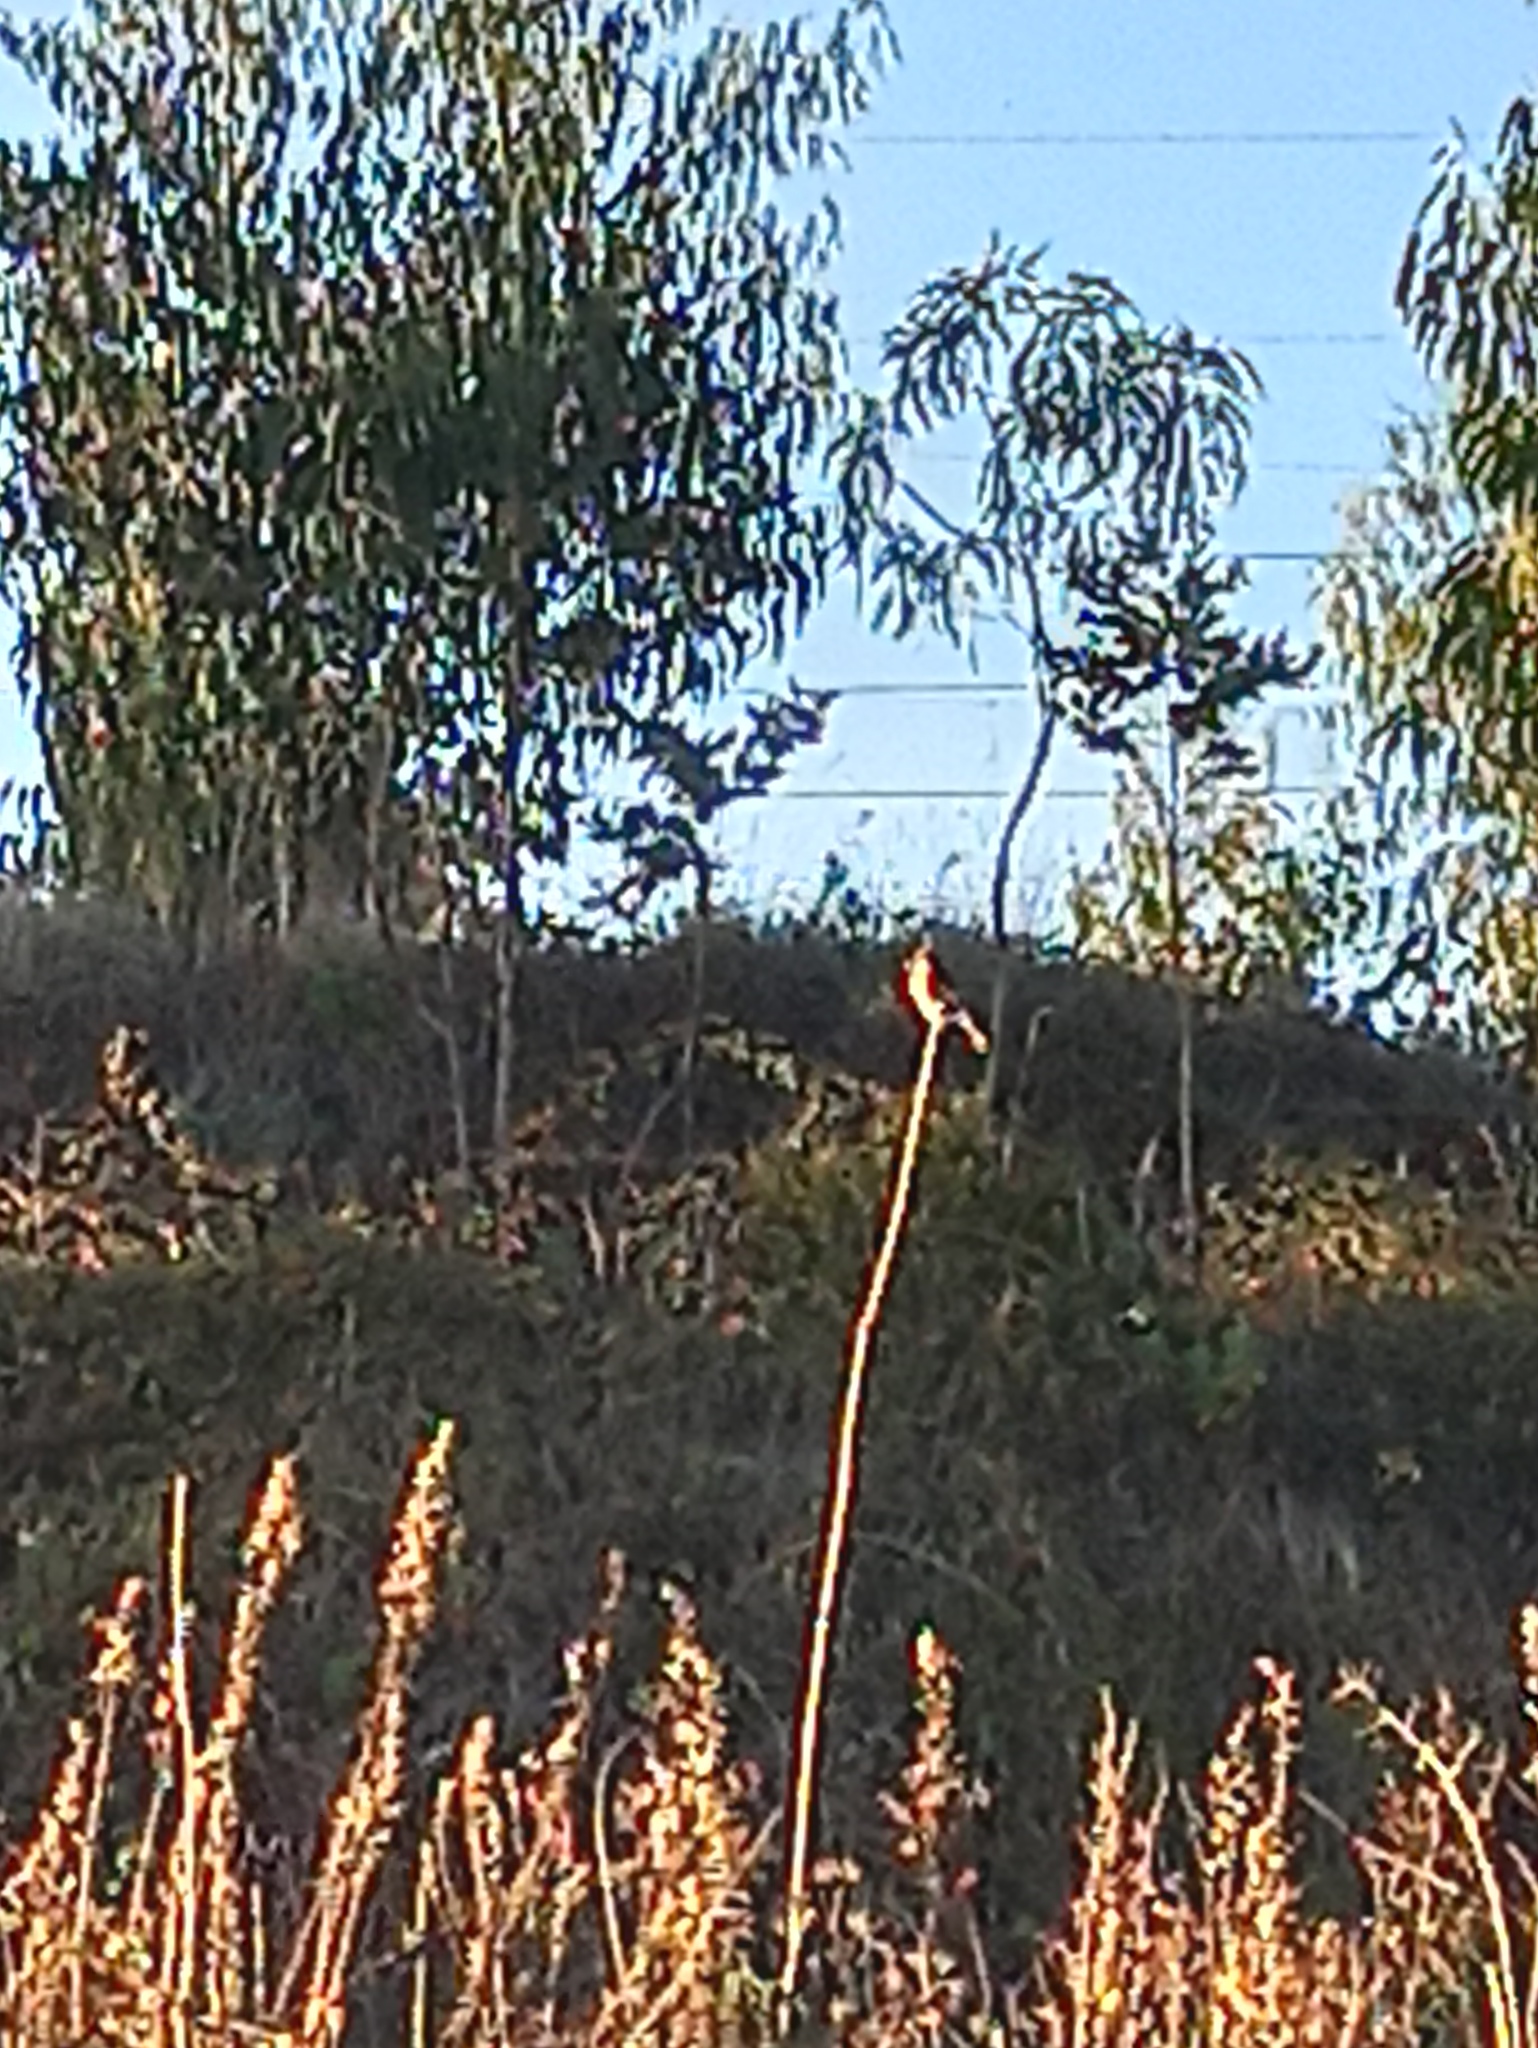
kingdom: Animalia
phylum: Chordata
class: Aves
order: Passeriformes
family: Muscicapidae
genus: Saxicola
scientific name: Saxicola rubicola
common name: European stonechat
